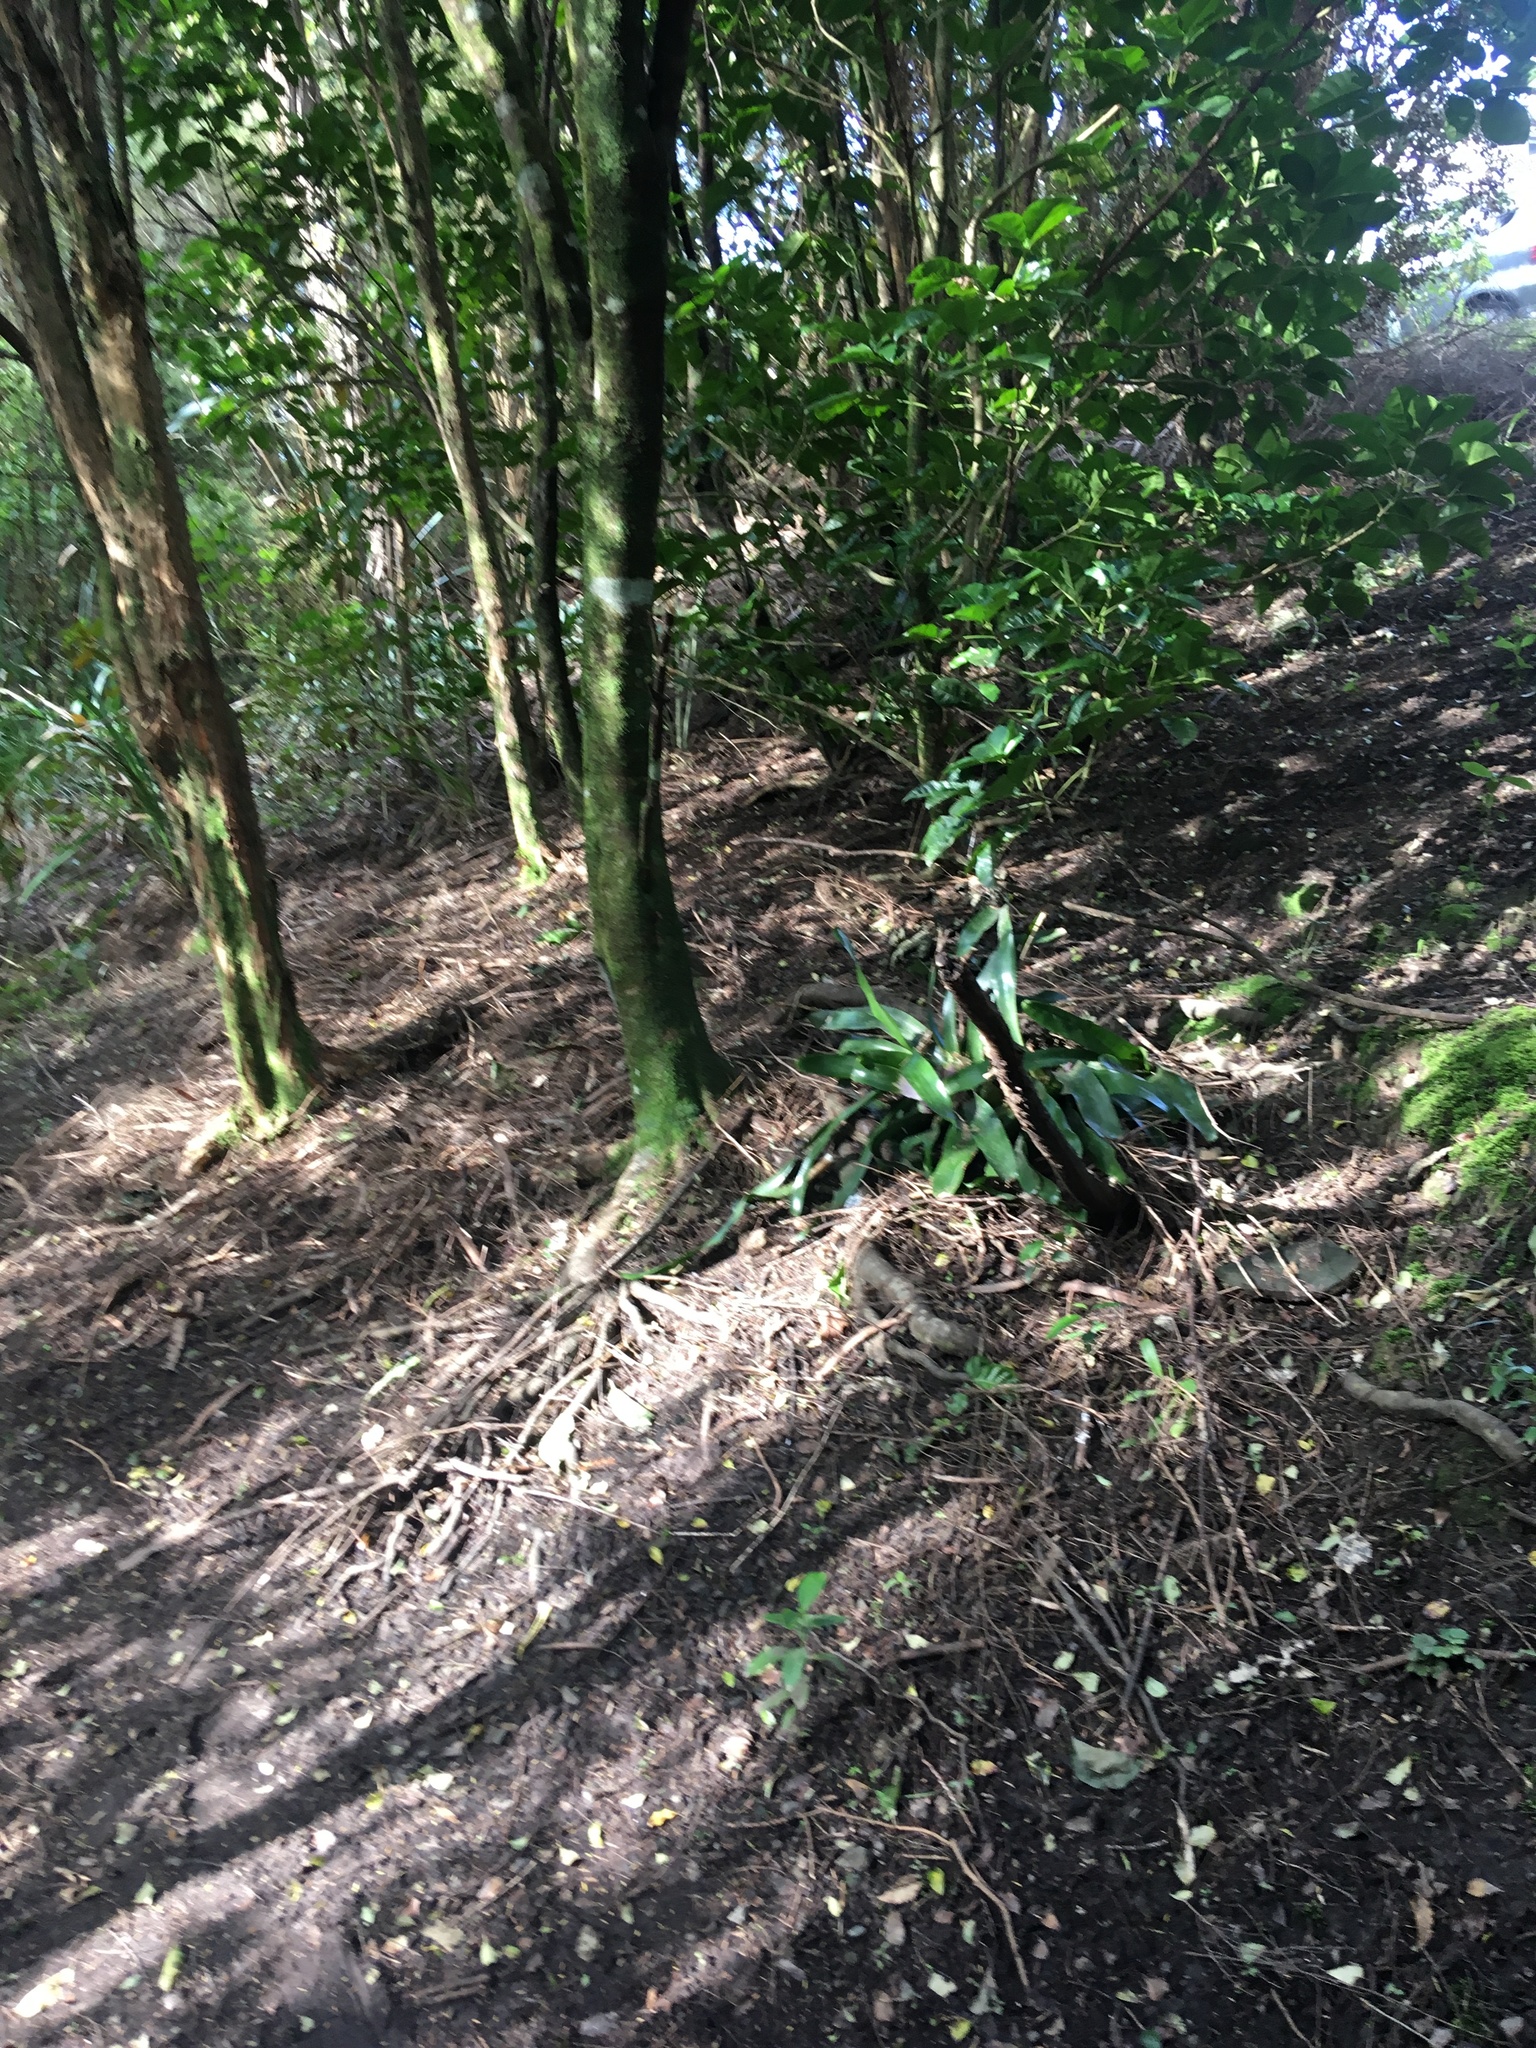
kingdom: Plantae
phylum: Tracheophyta
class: Magnoliopsida
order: Lamiales
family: Lamiaceae
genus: Vitex
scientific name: Vitex lucens
